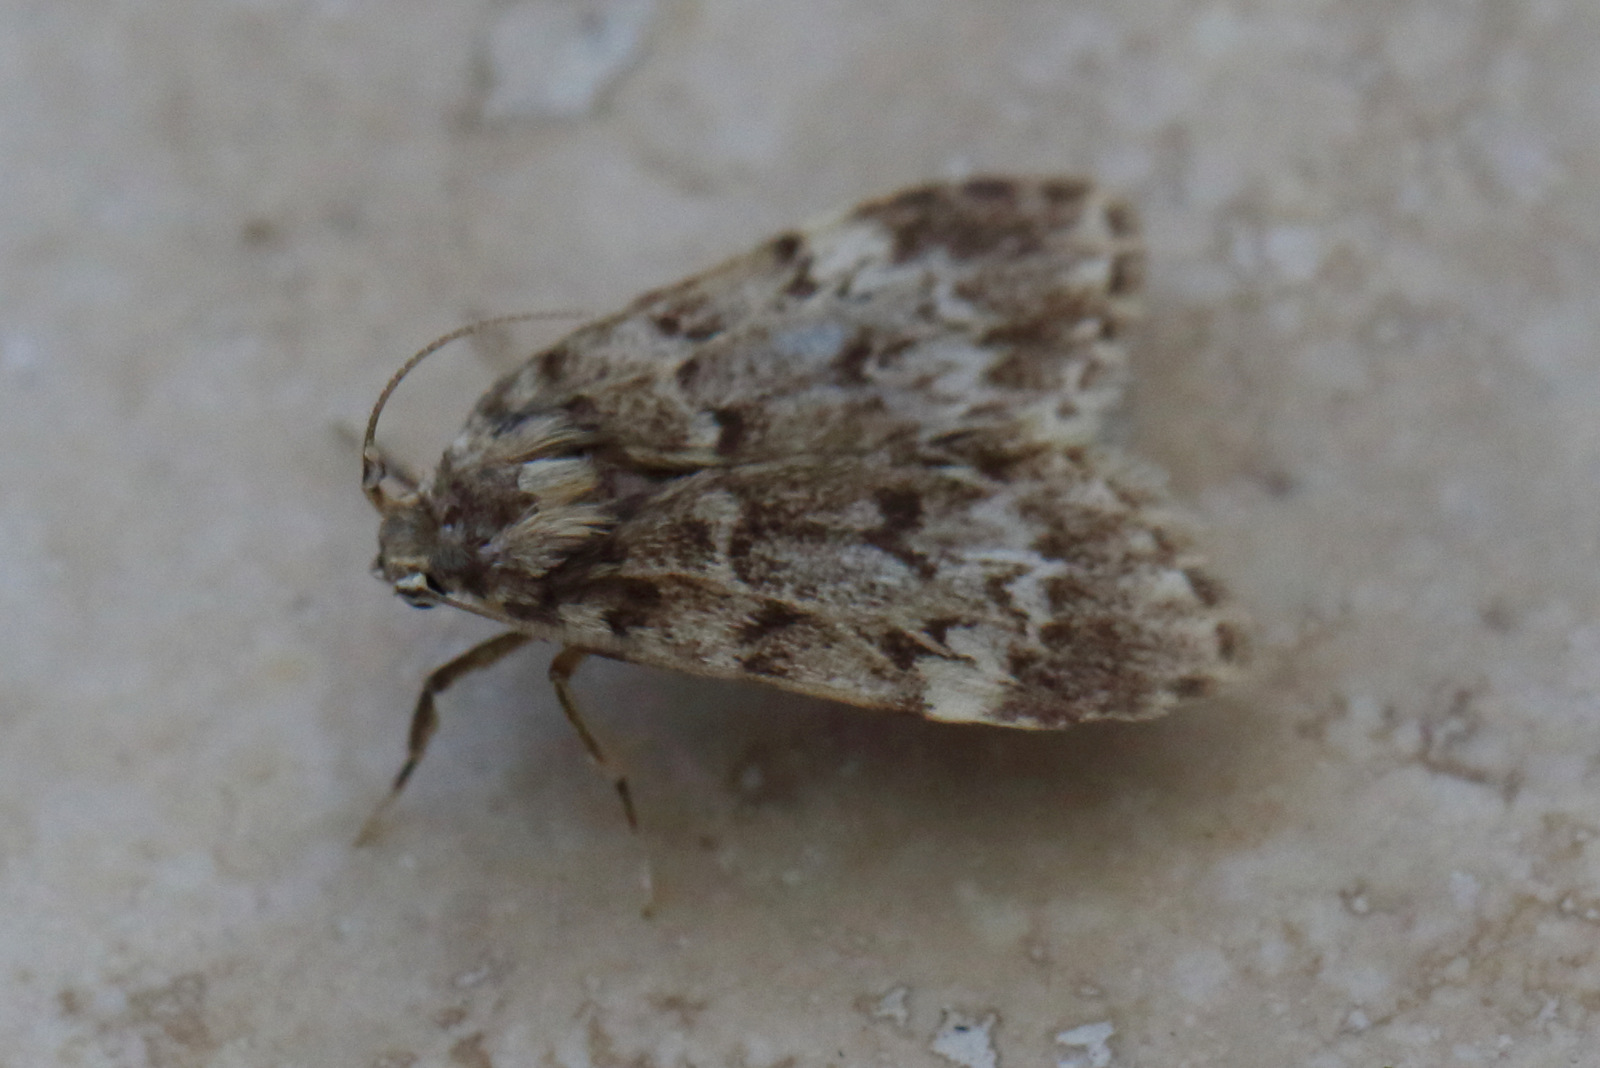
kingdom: Animalia
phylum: Arthropoda
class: Insecta
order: Lepidoptera
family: Erebidae
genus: Scaphidriotis
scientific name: Scaphidriotis xylogramma
